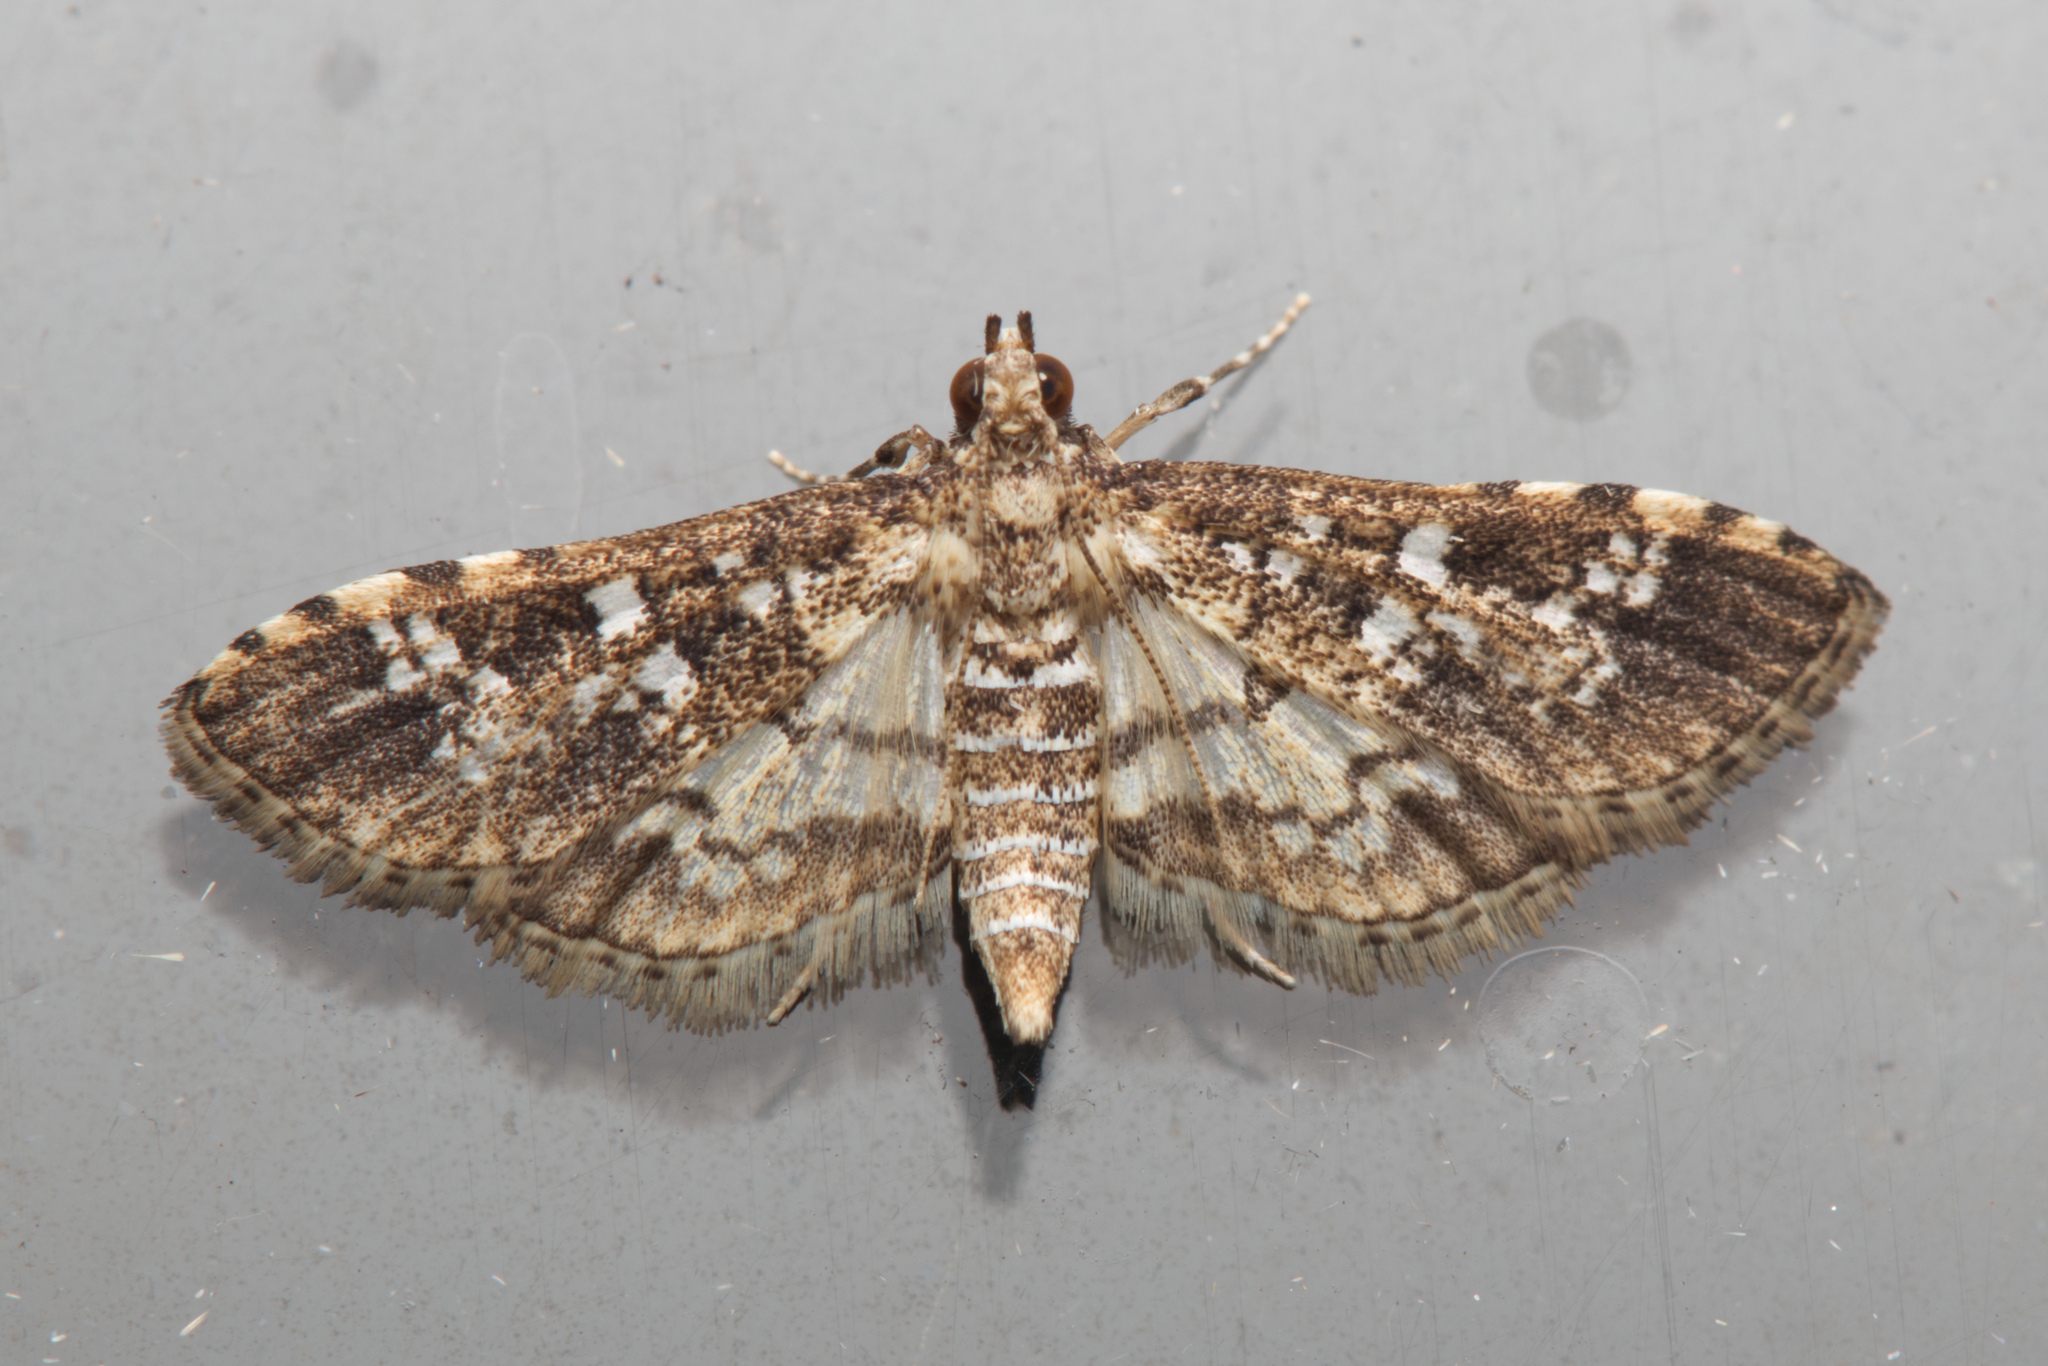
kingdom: Animalia
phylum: Arthropoda
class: Insecta
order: Lepidoptera
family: Crambidae
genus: Samea
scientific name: Samea multiplicalis
